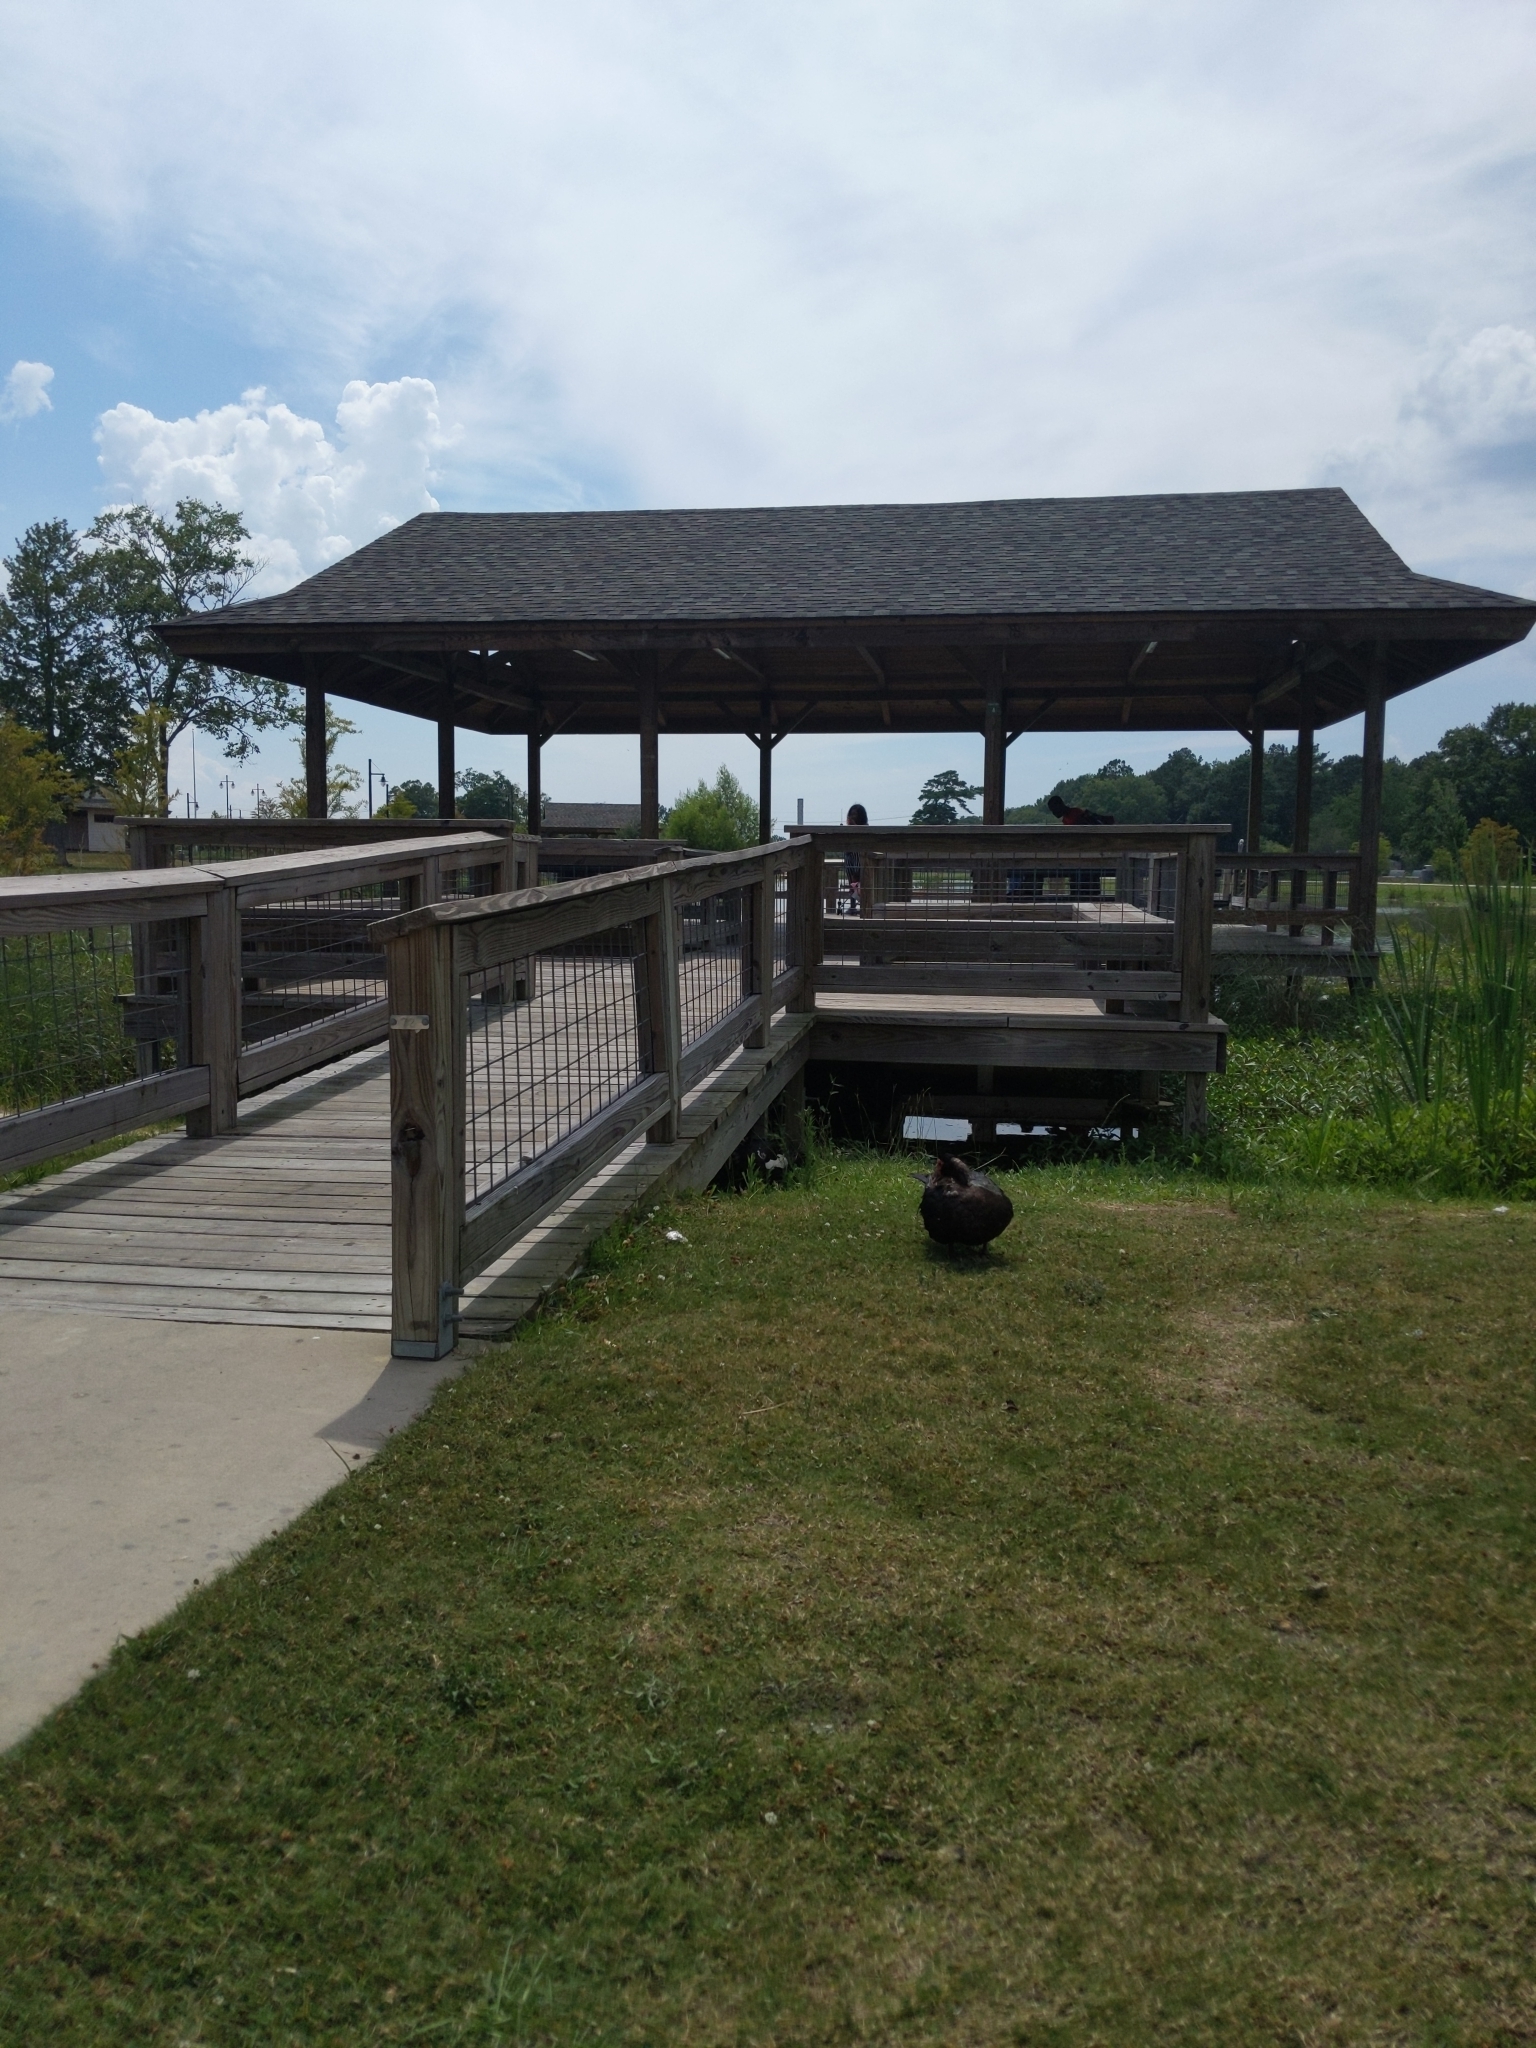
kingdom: Animalia
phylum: Chordata
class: Aves
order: Anseriformes
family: Anatidae
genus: Cairina
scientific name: Cairina moschata
